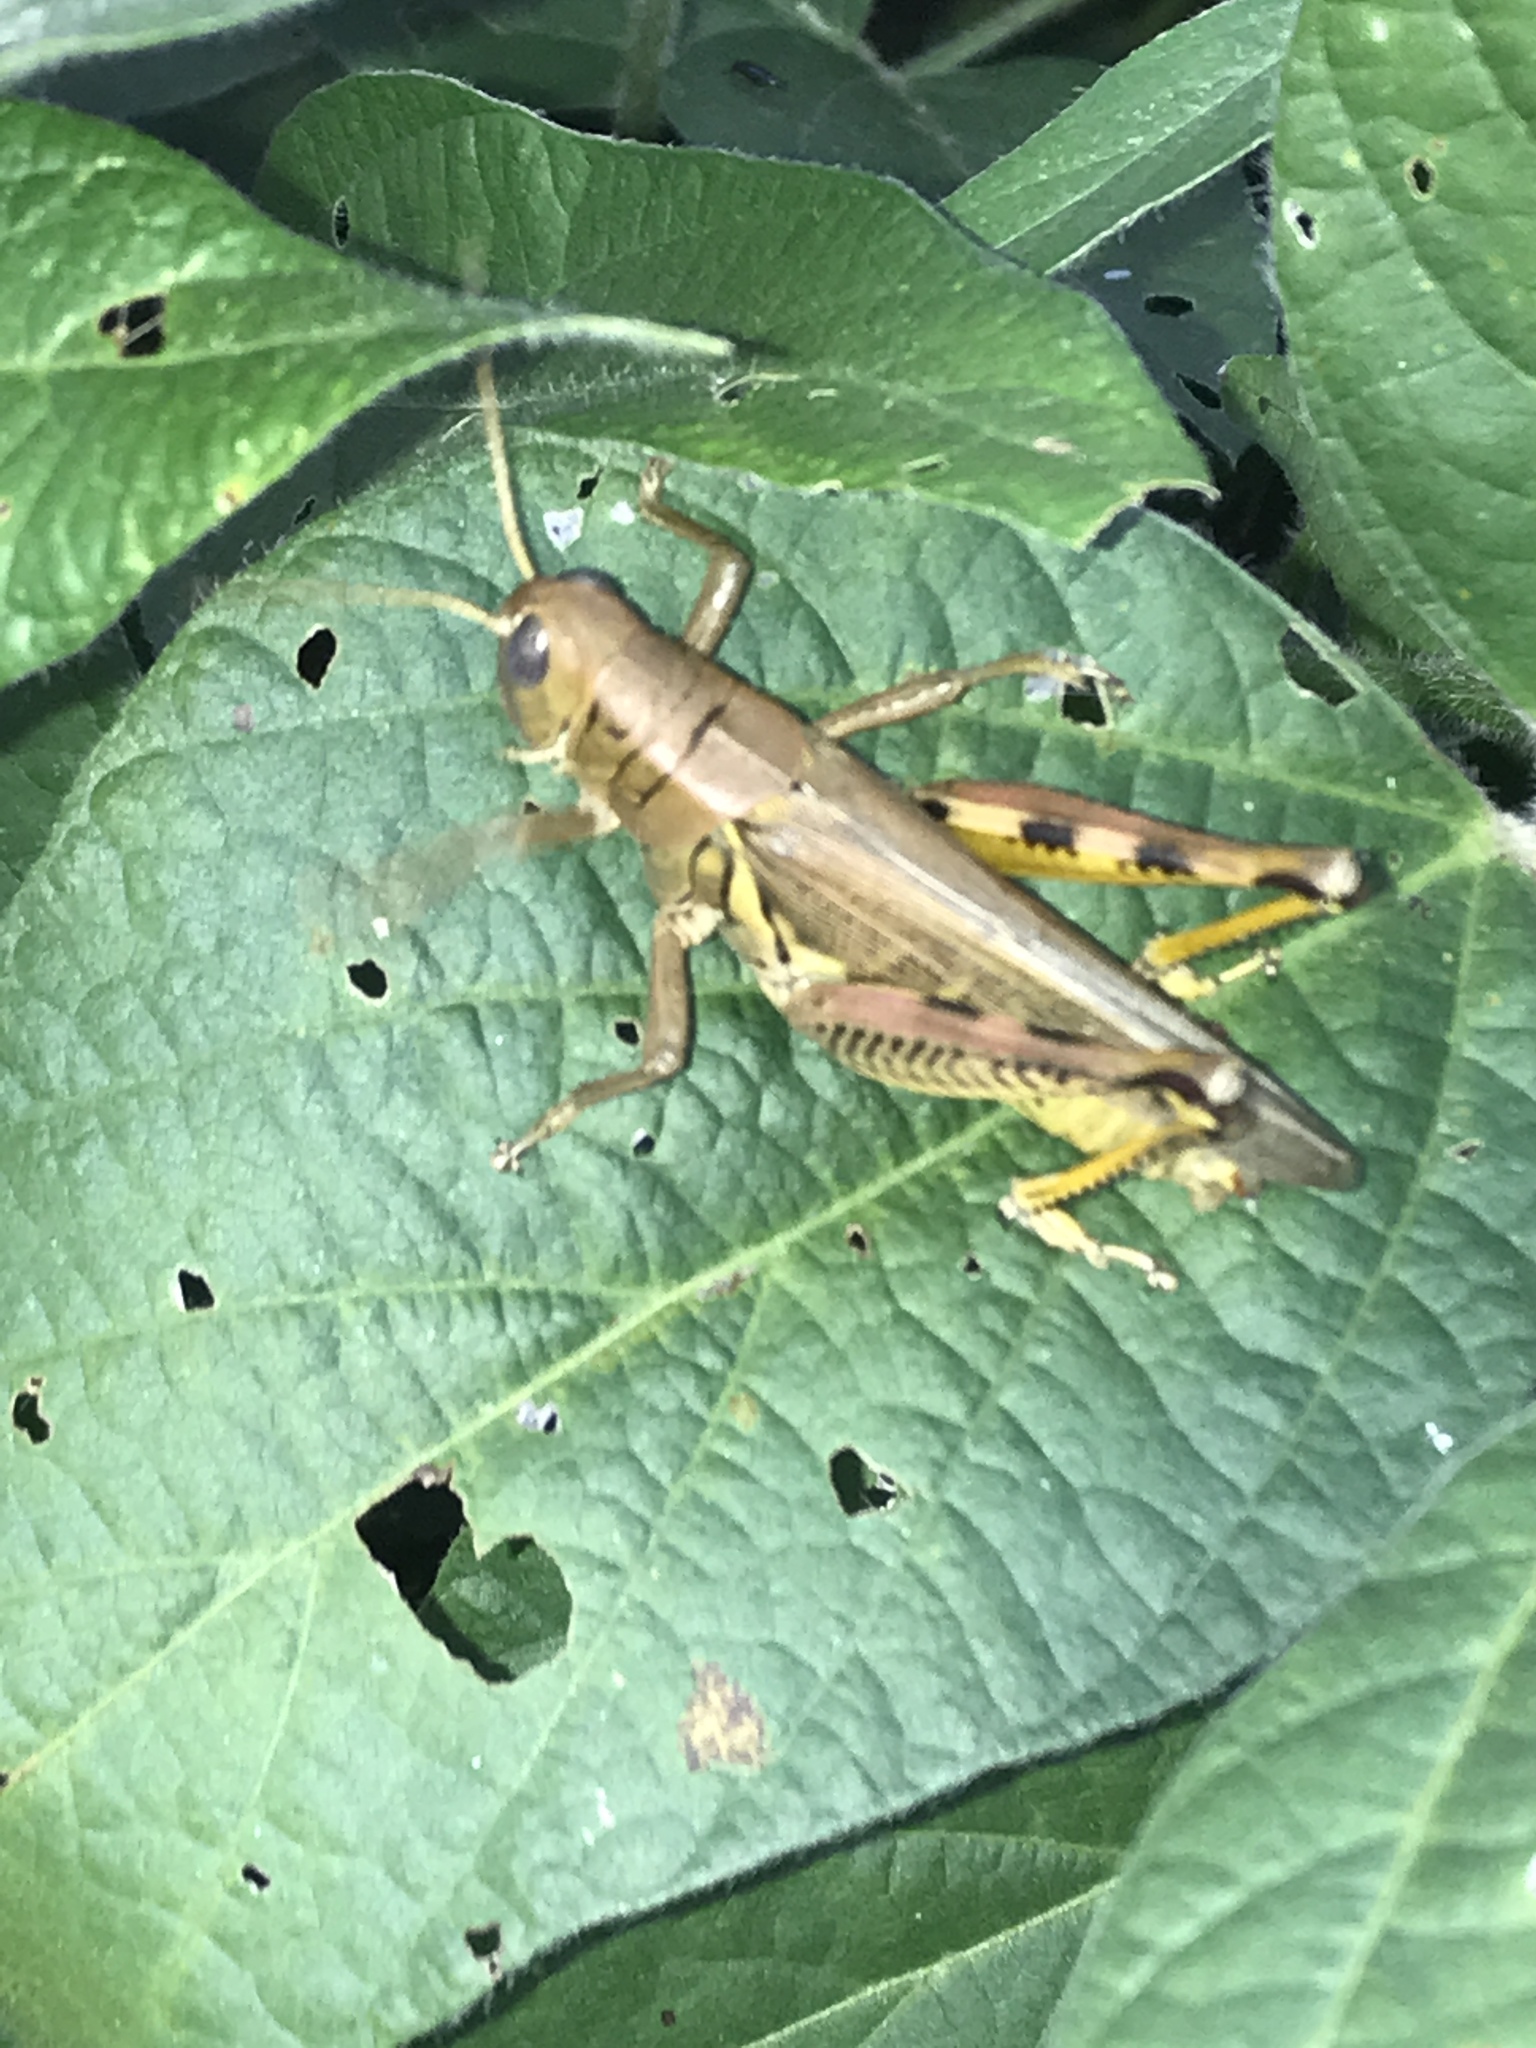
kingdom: Animalia
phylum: Arthropoda
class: Insecta
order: Orthoptera
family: Acrididae
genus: Melanoplus
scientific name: Melanoplus differentialis
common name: Differential grasshopper
